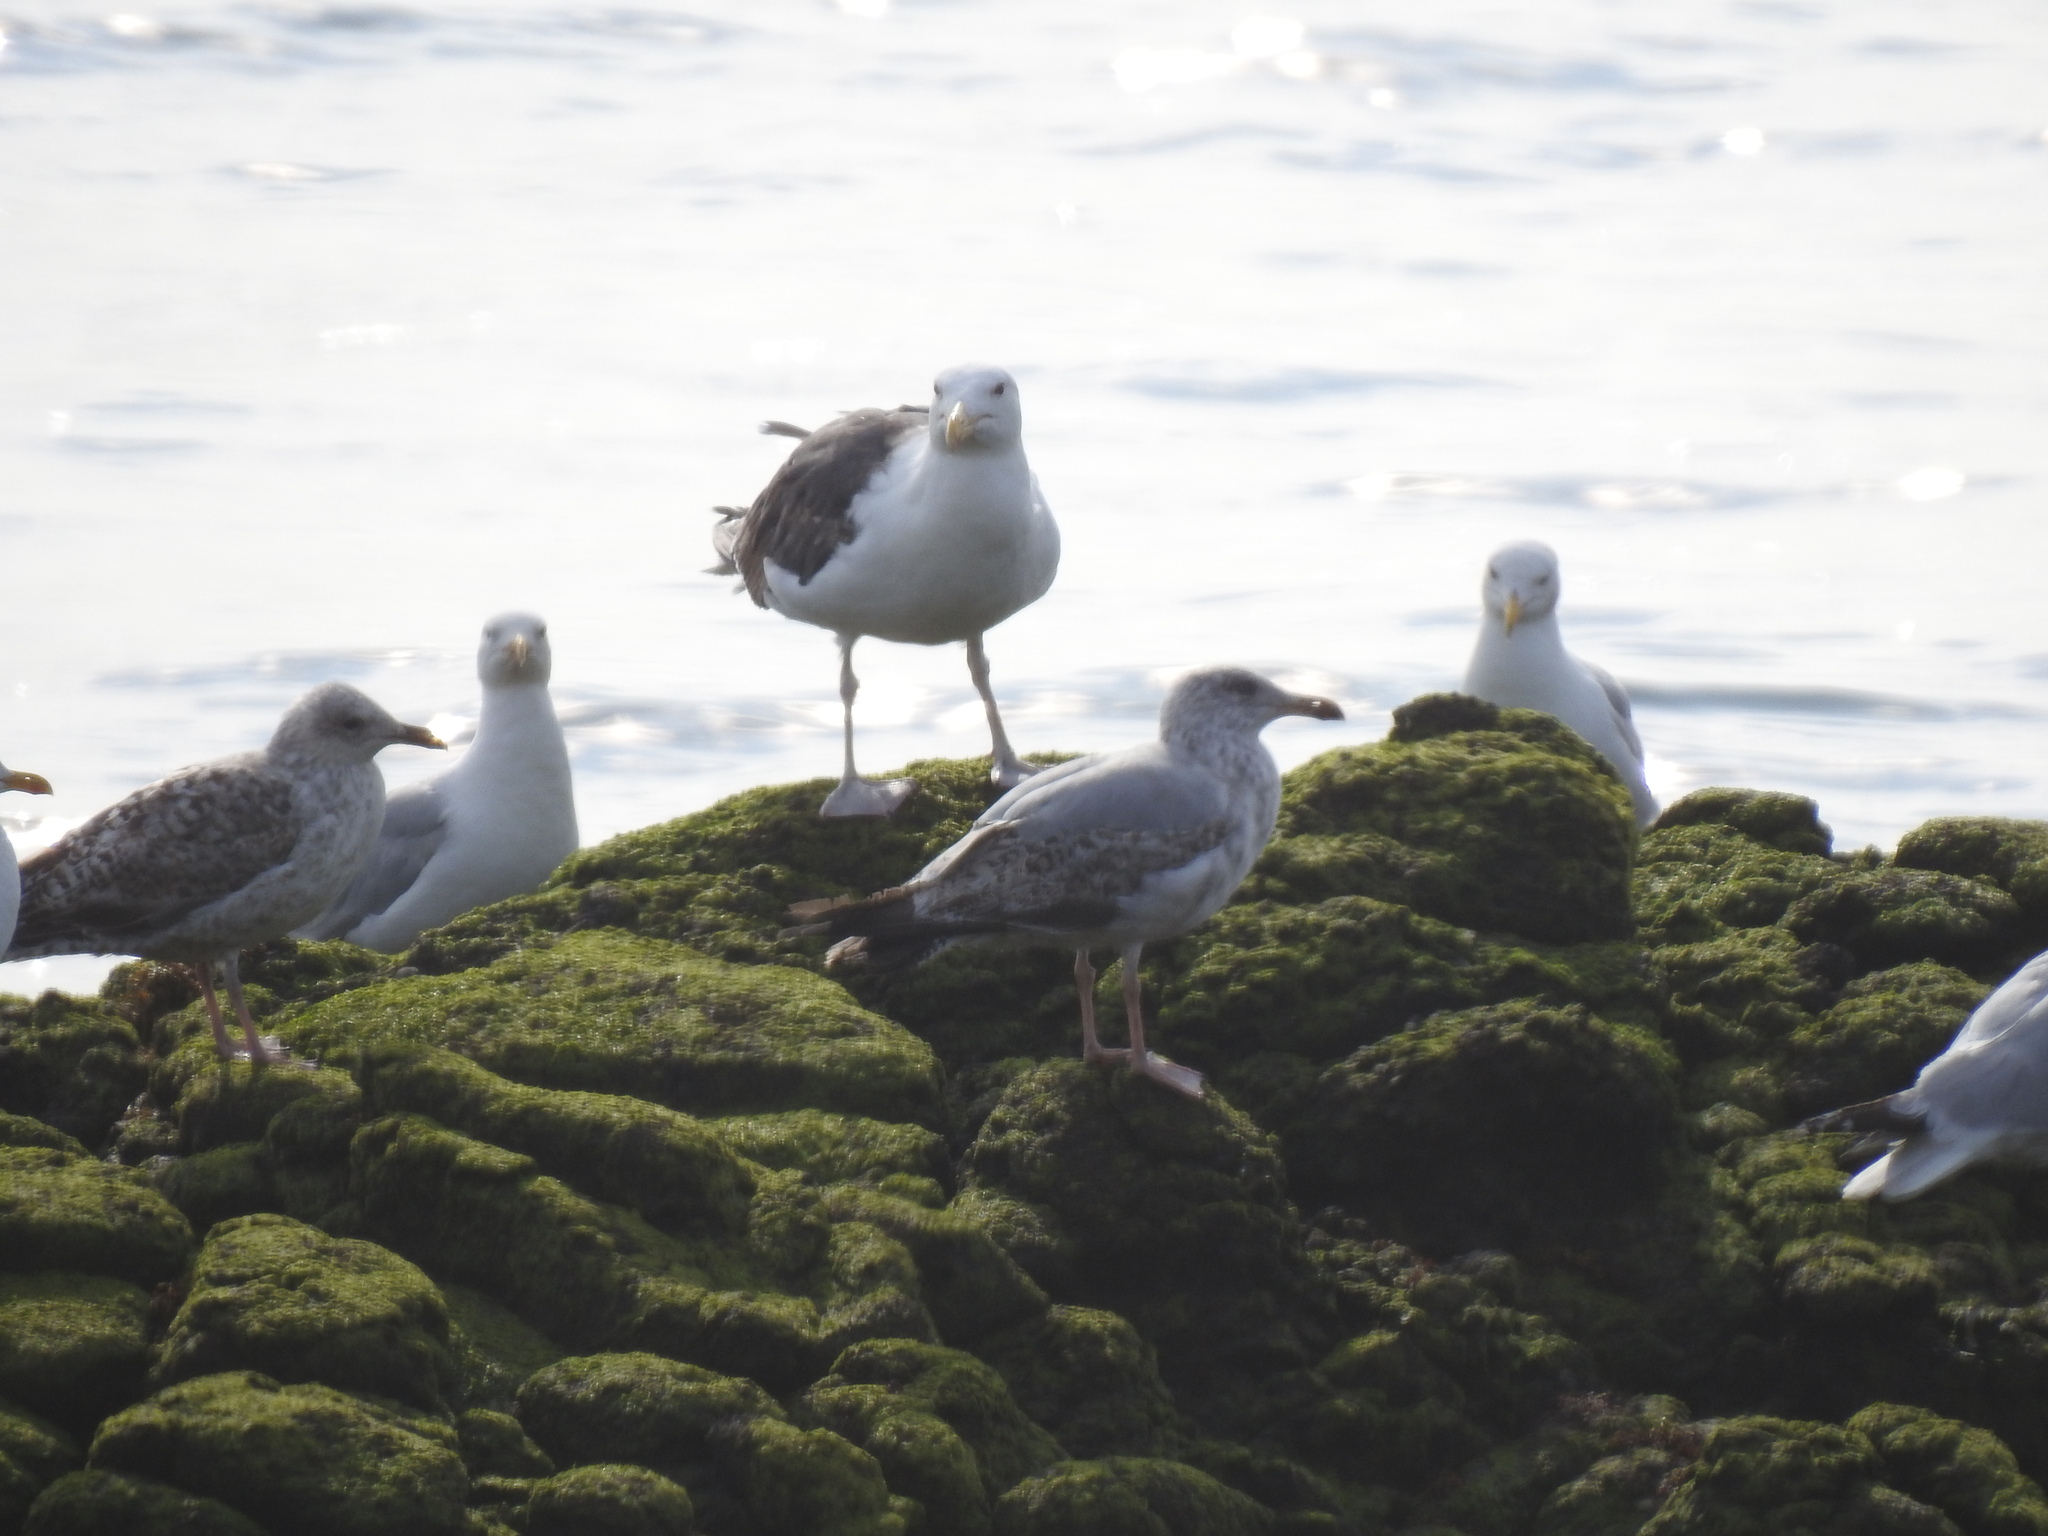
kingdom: Animalia
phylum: Chordata
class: Aves
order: Charadriiformes
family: Laridae
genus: Larus
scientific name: Larus marinus
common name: Great black-backed gull
